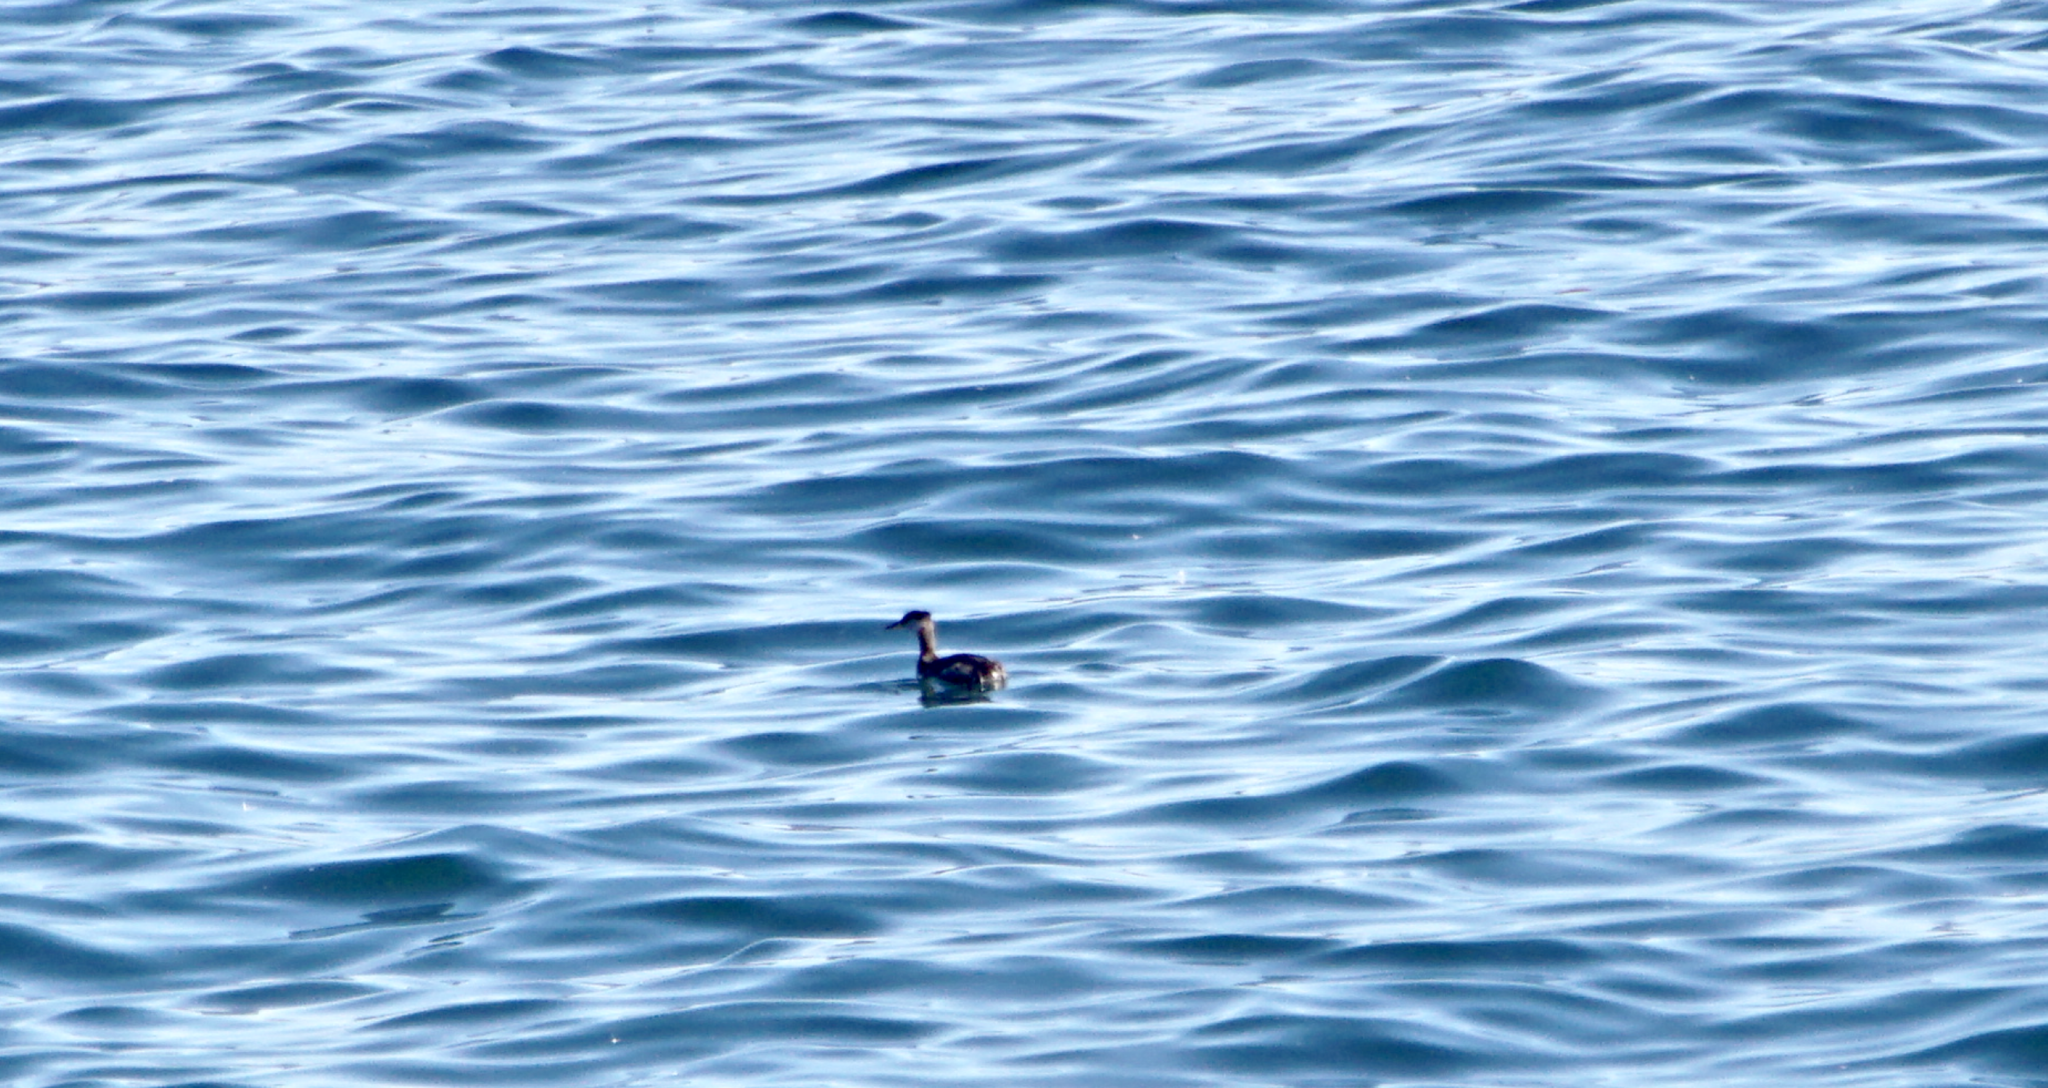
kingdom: Animalia
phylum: Chordata
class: Aves
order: Podicipediformes
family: Podicipedidae
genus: Podiceps
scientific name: Podiceps grisegena
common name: Red-necked grebe
